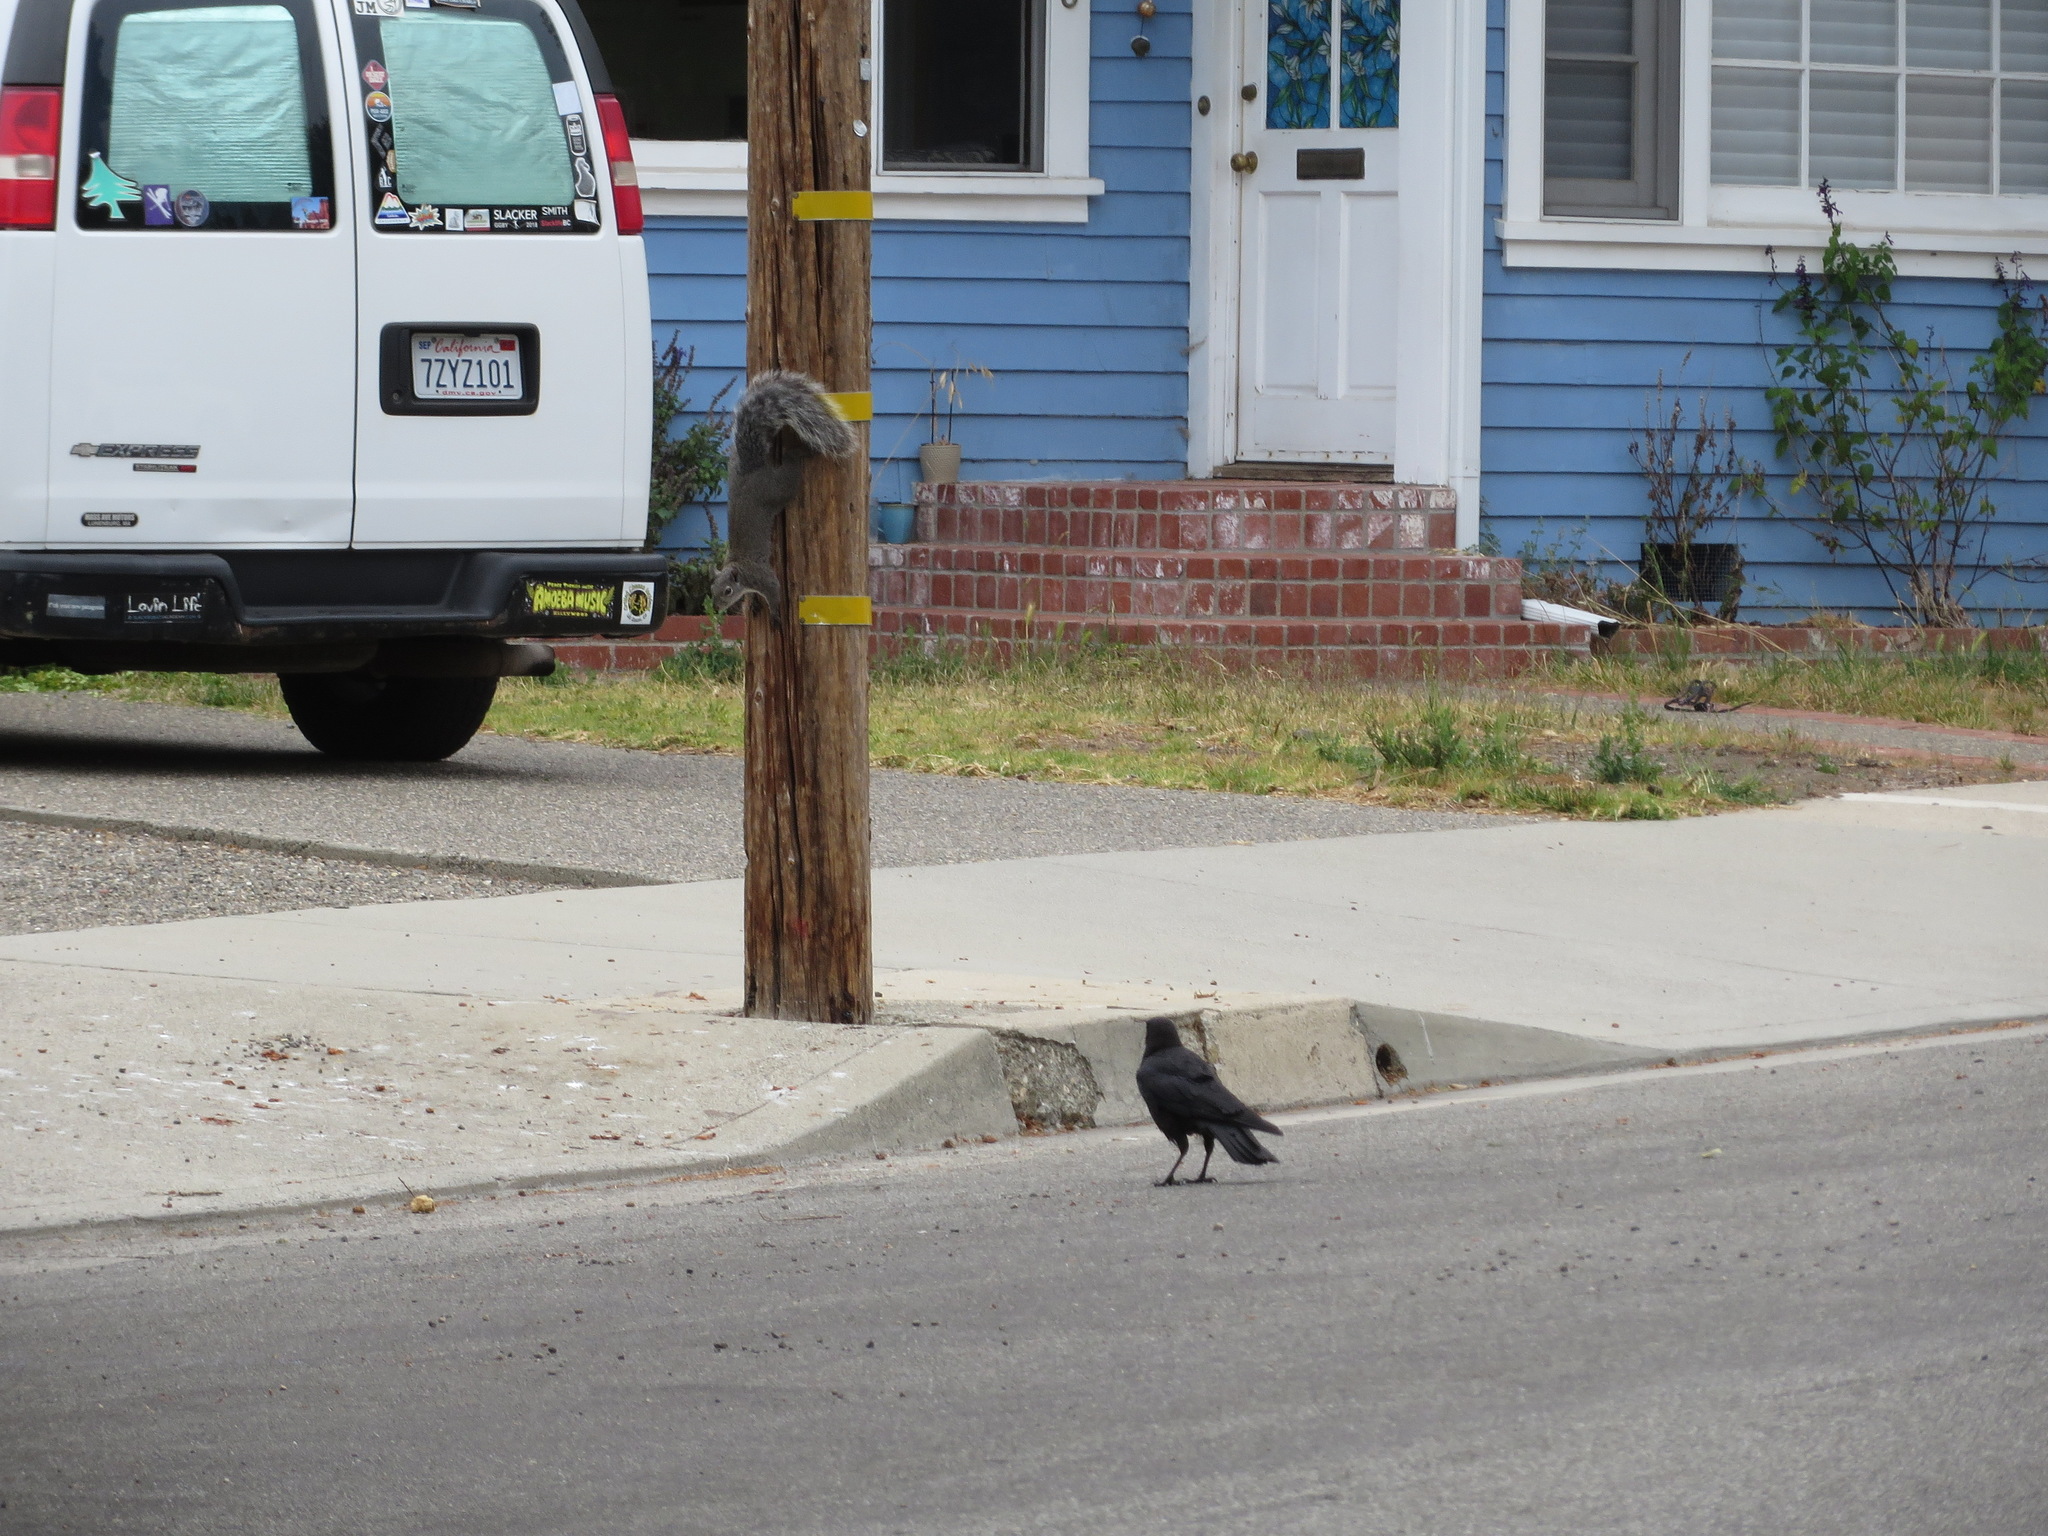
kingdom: Animalia
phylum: Chordata
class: Aves
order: Passeriformes
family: Corvidae
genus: Corvus
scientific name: Corvus brachyrhynchos
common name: American crow
